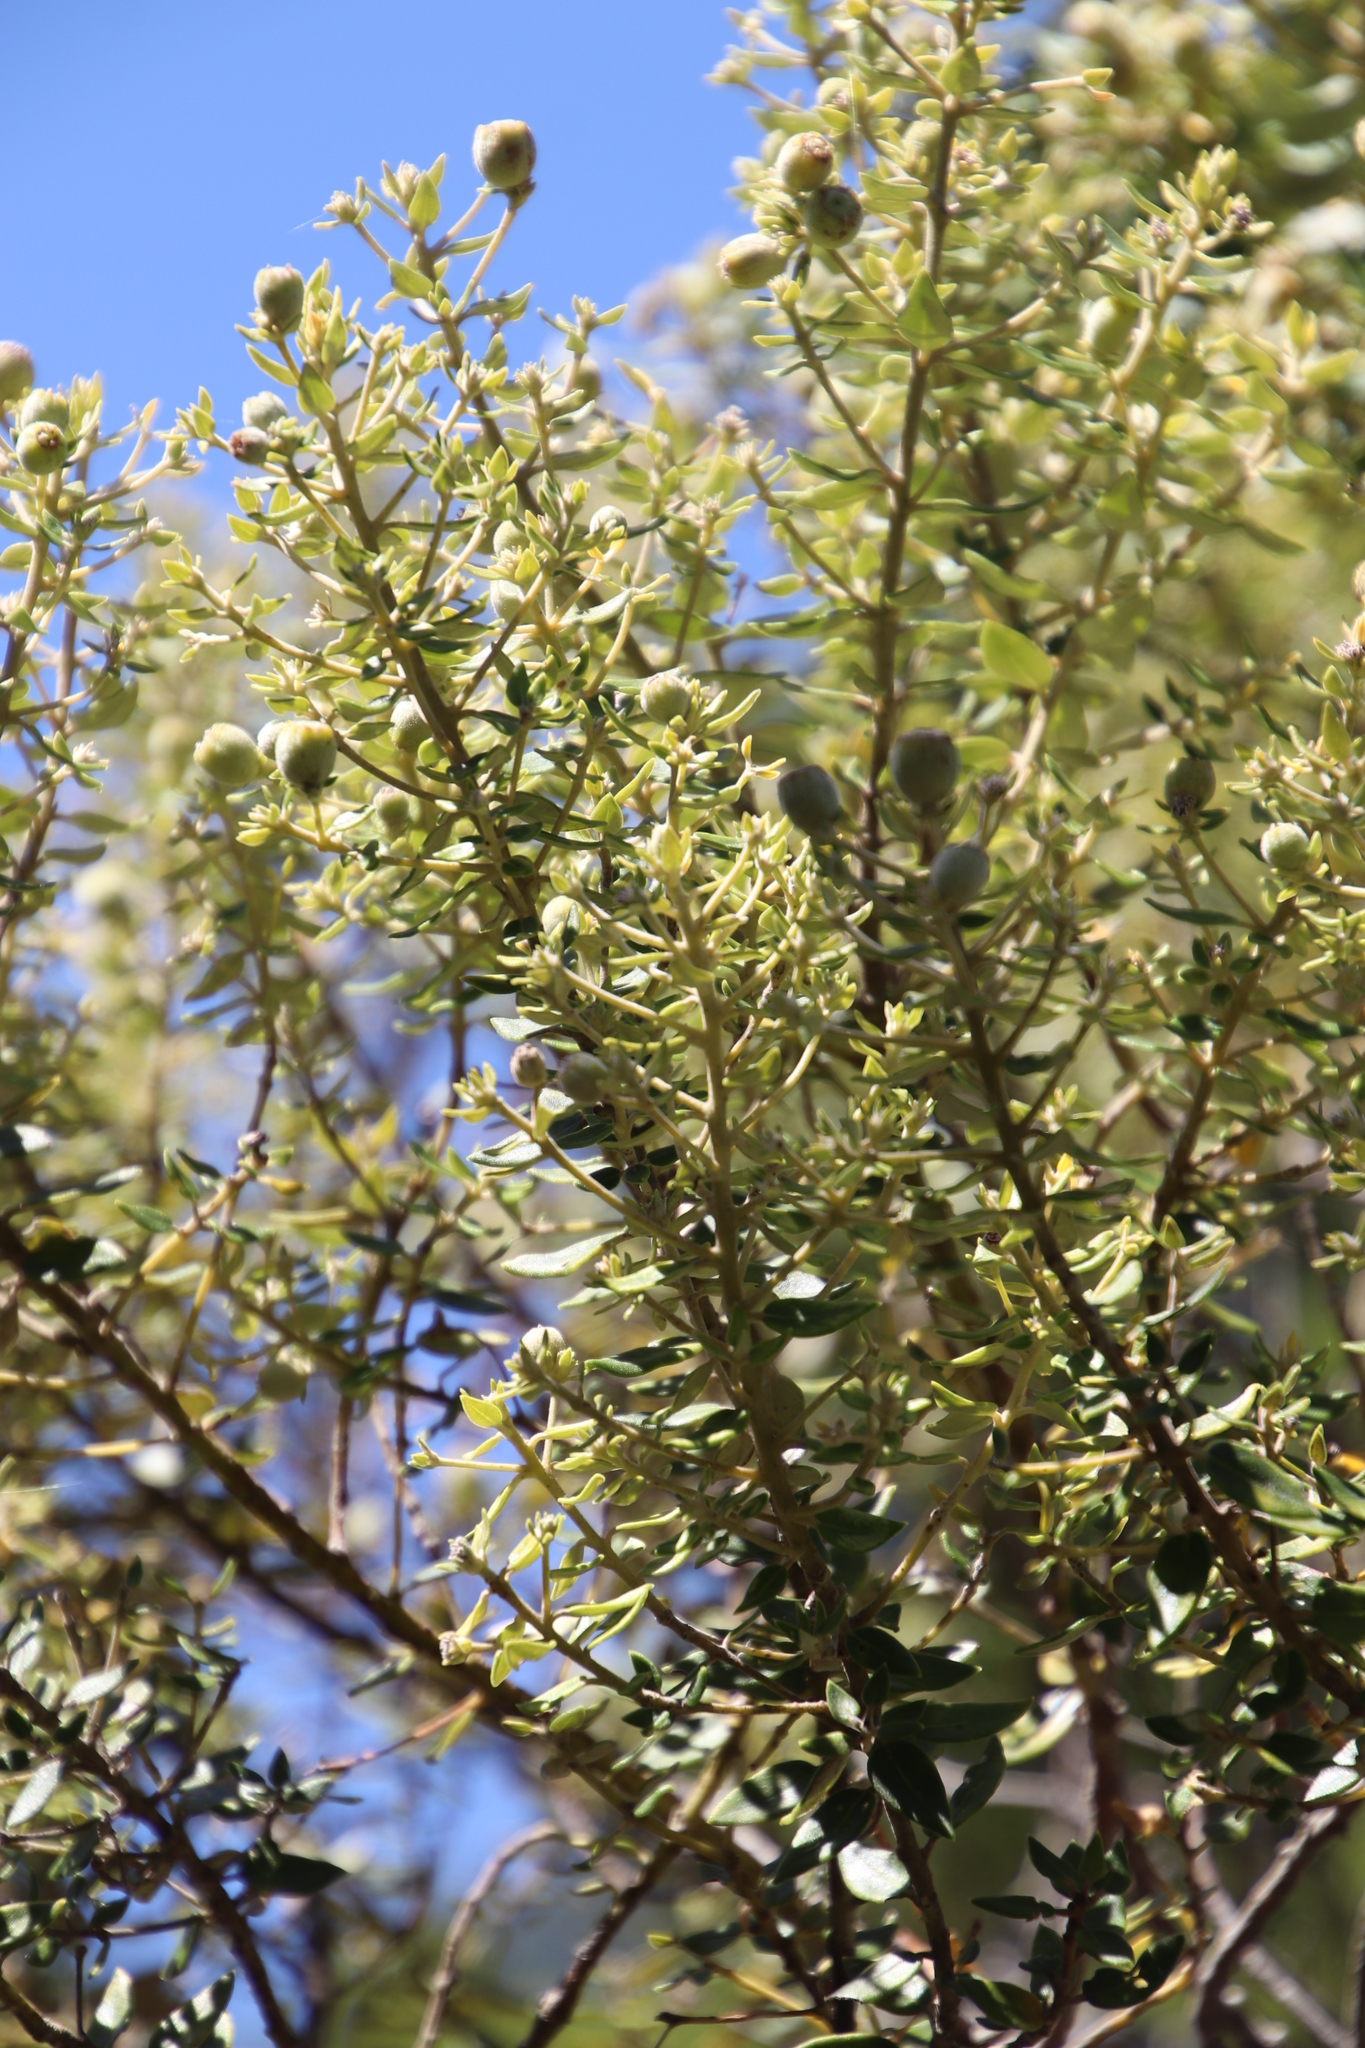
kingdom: Plantae
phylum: Tracheophyta
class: Magnoliopsida
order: Rosales
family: Rhamnaceae
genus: Phylica
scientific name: Phylica buxifolia
